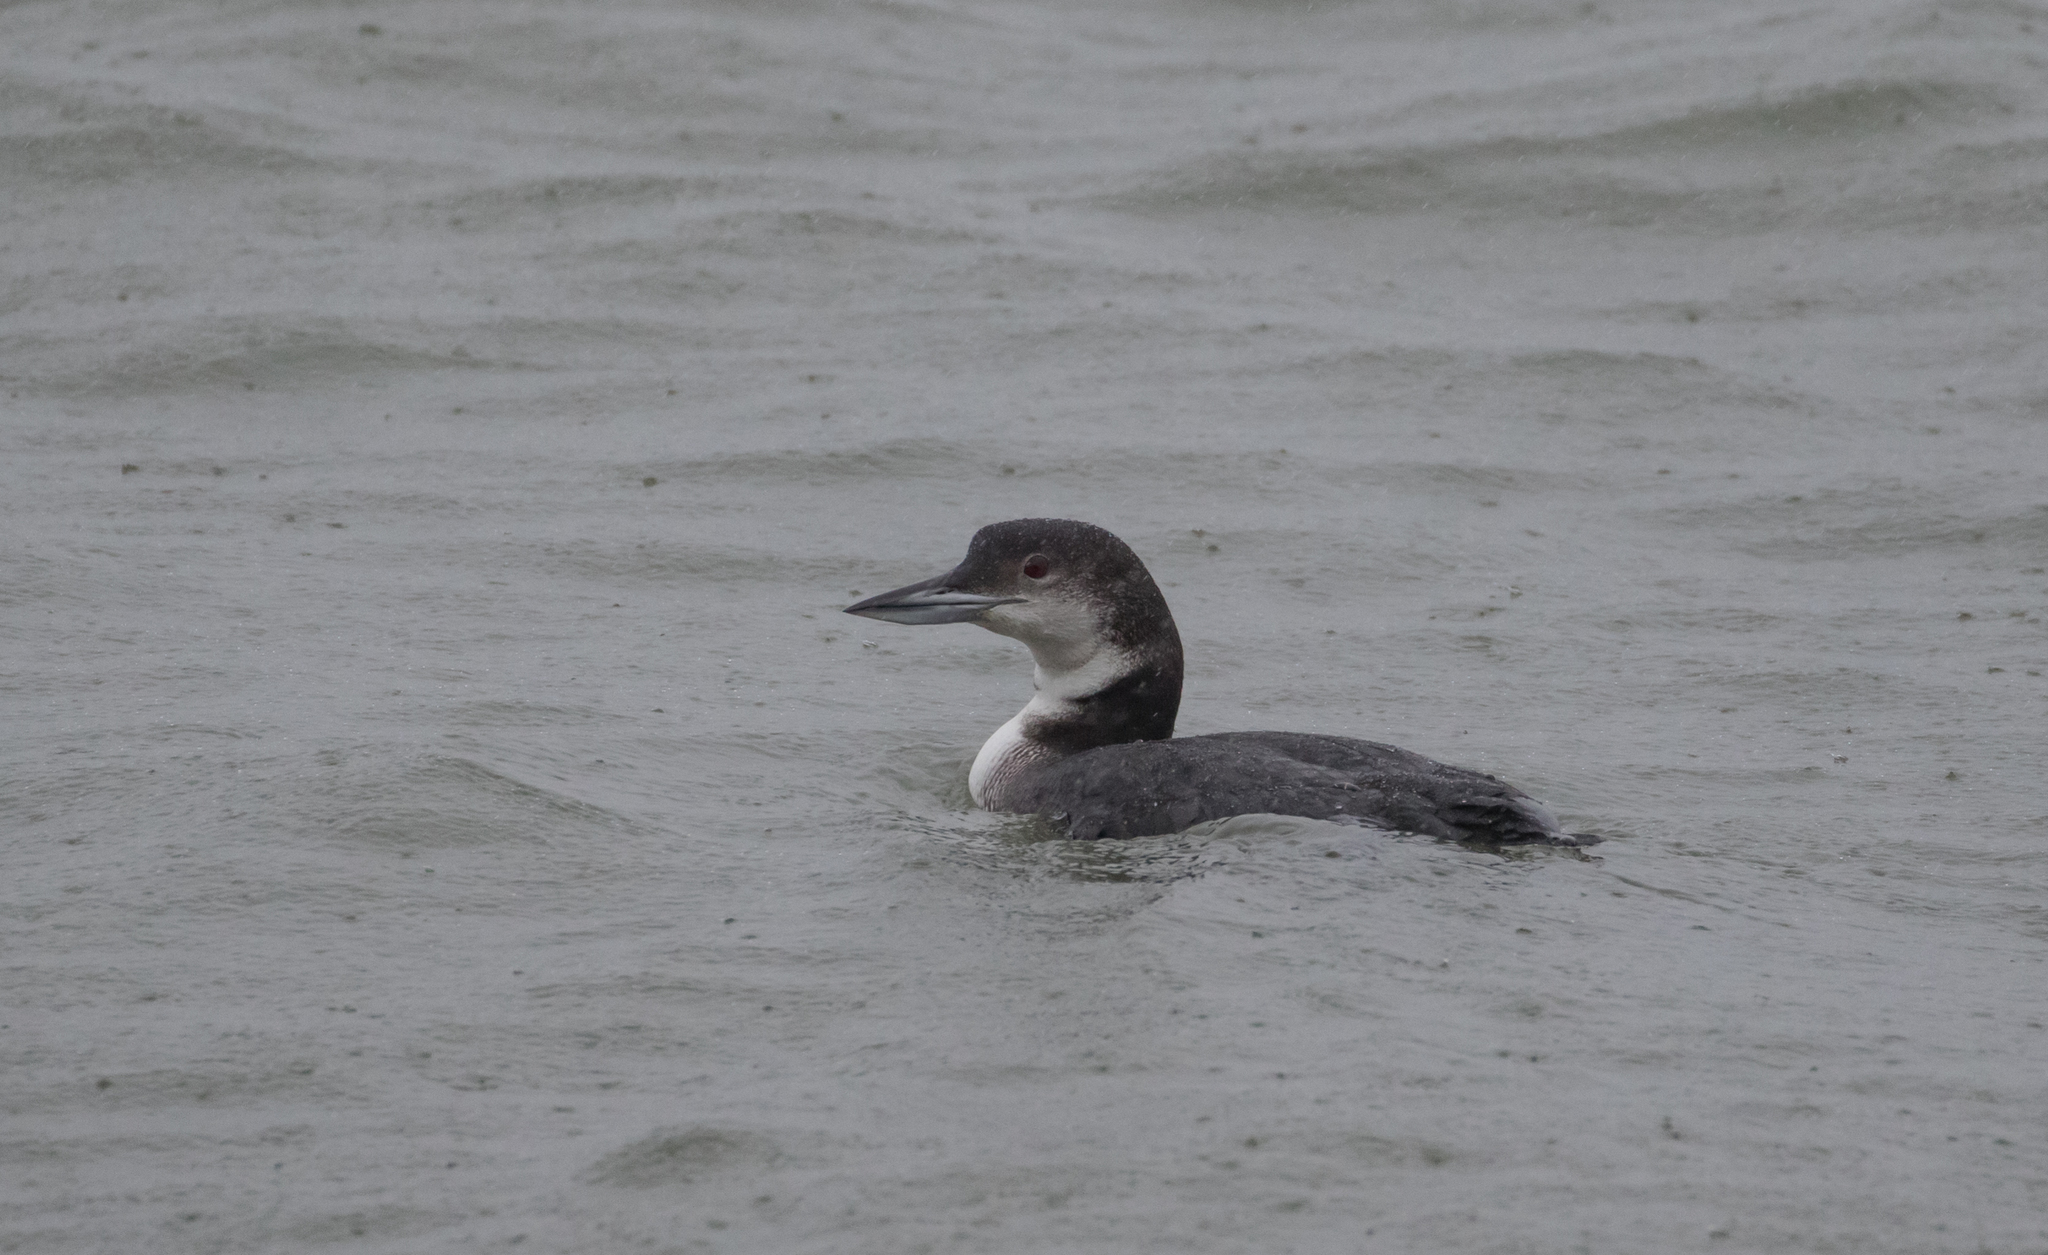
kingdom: Animalia
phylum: Chordata
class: Aves
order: Gaviiformes
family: Gaviidae
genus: Gavia
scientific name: Gavia immer
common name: Common loon
